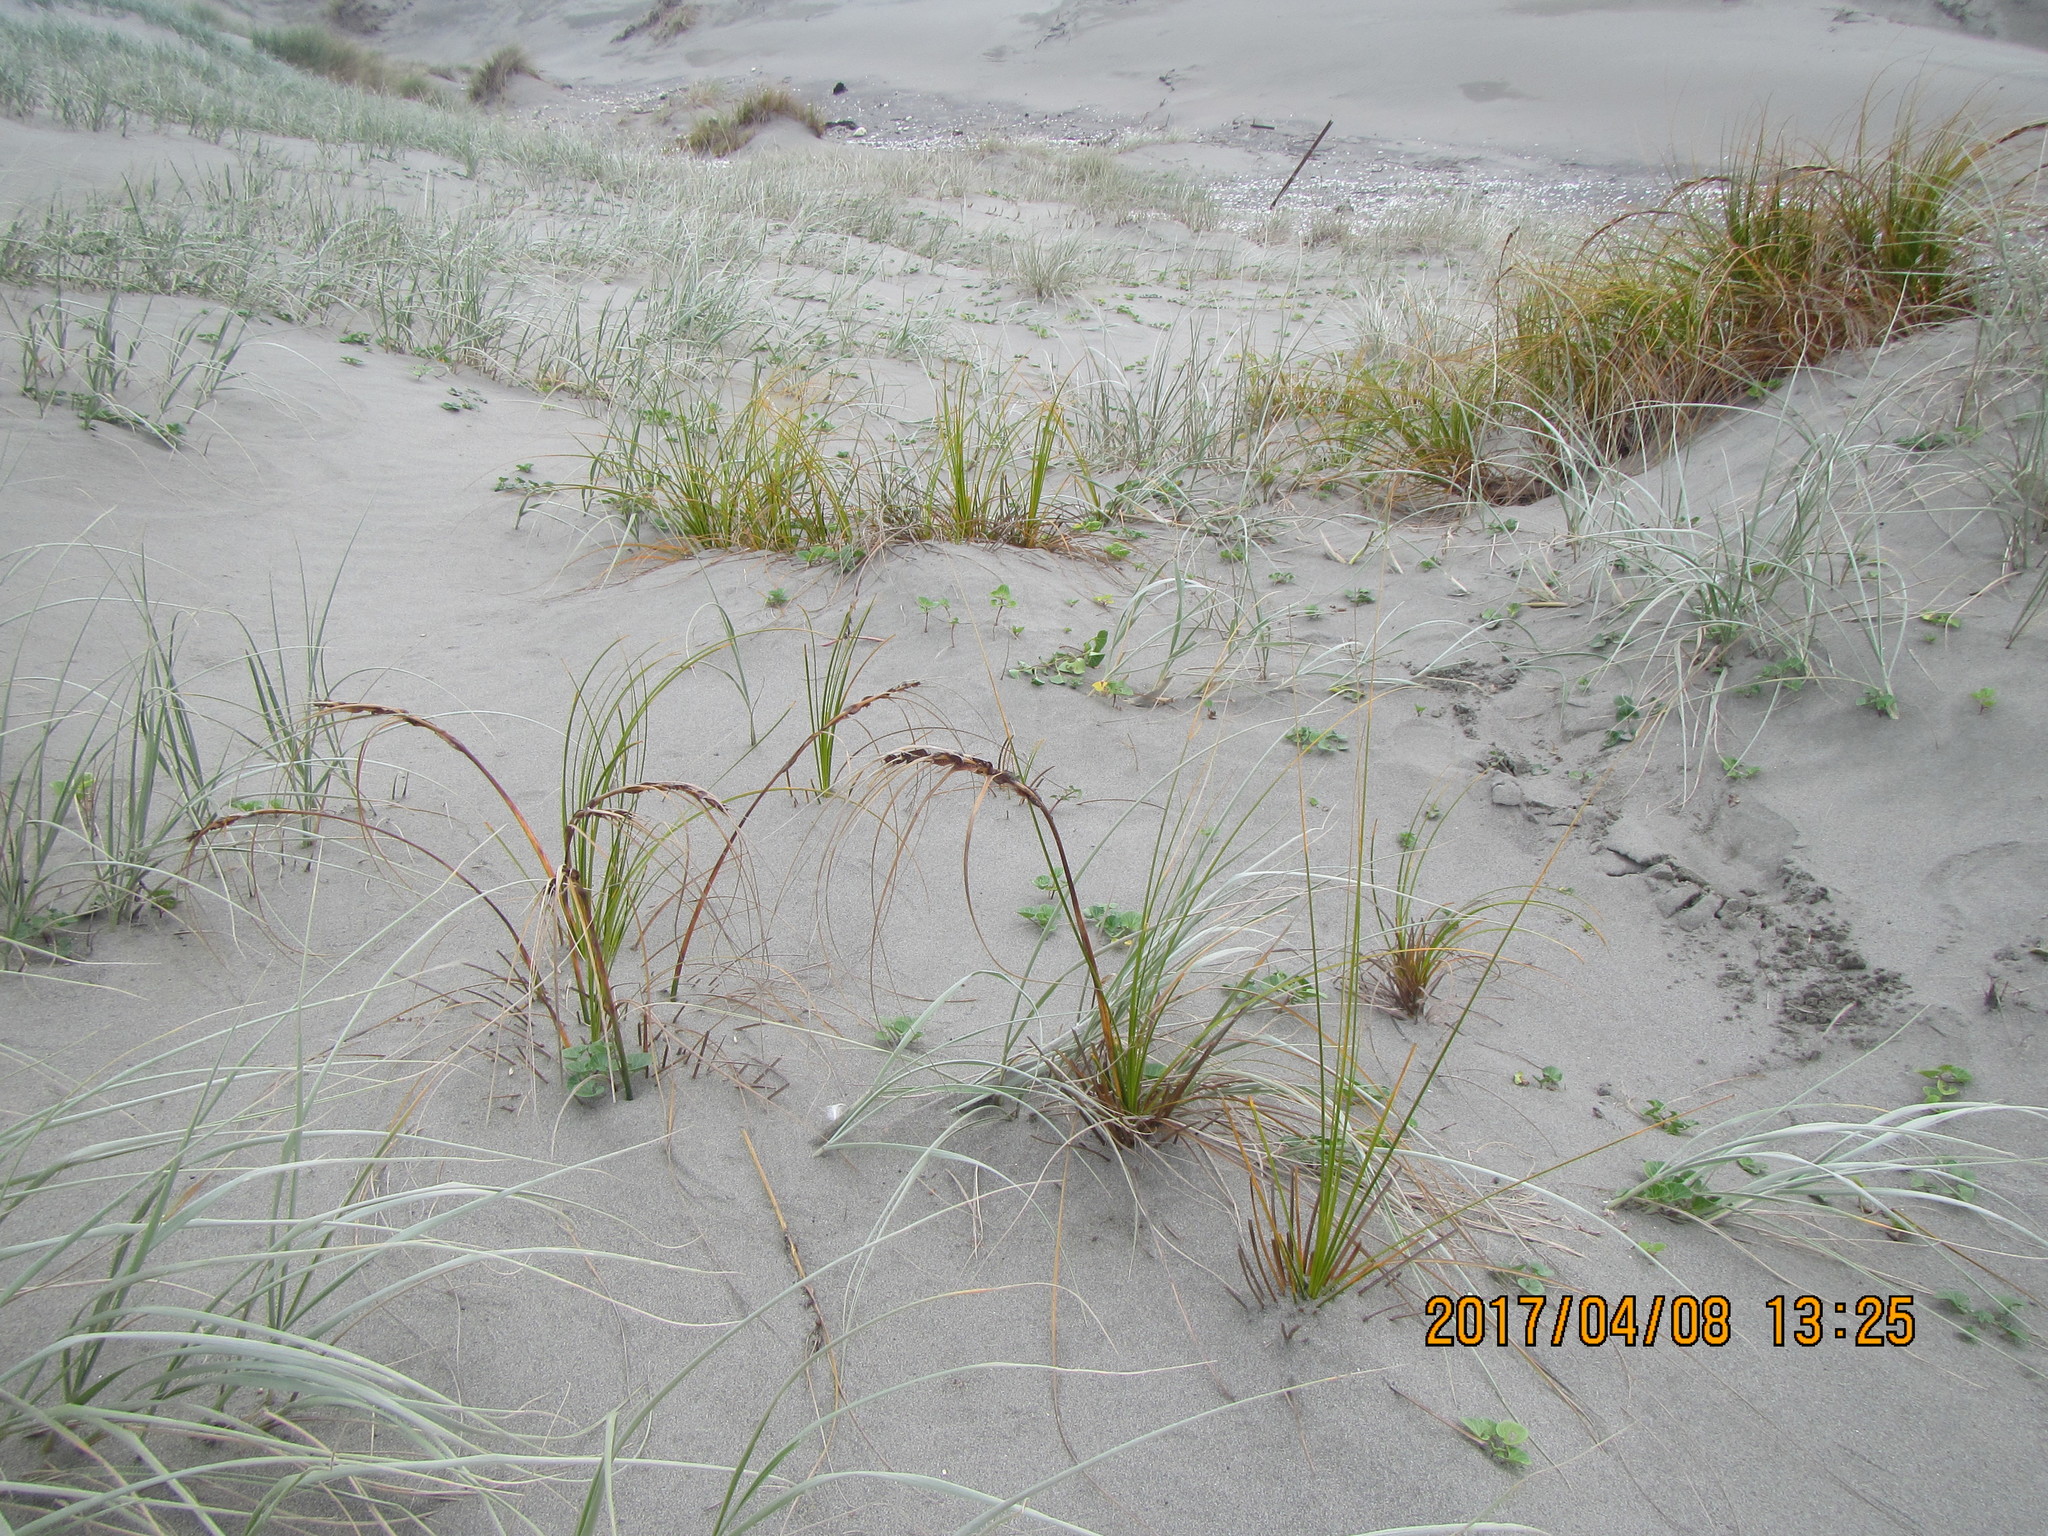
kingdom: Plantae
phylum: Tracheophyta
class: Liliopsida
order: Poales
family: Cyperaceae
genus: Ficinia
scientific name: Ficinia spiralis
